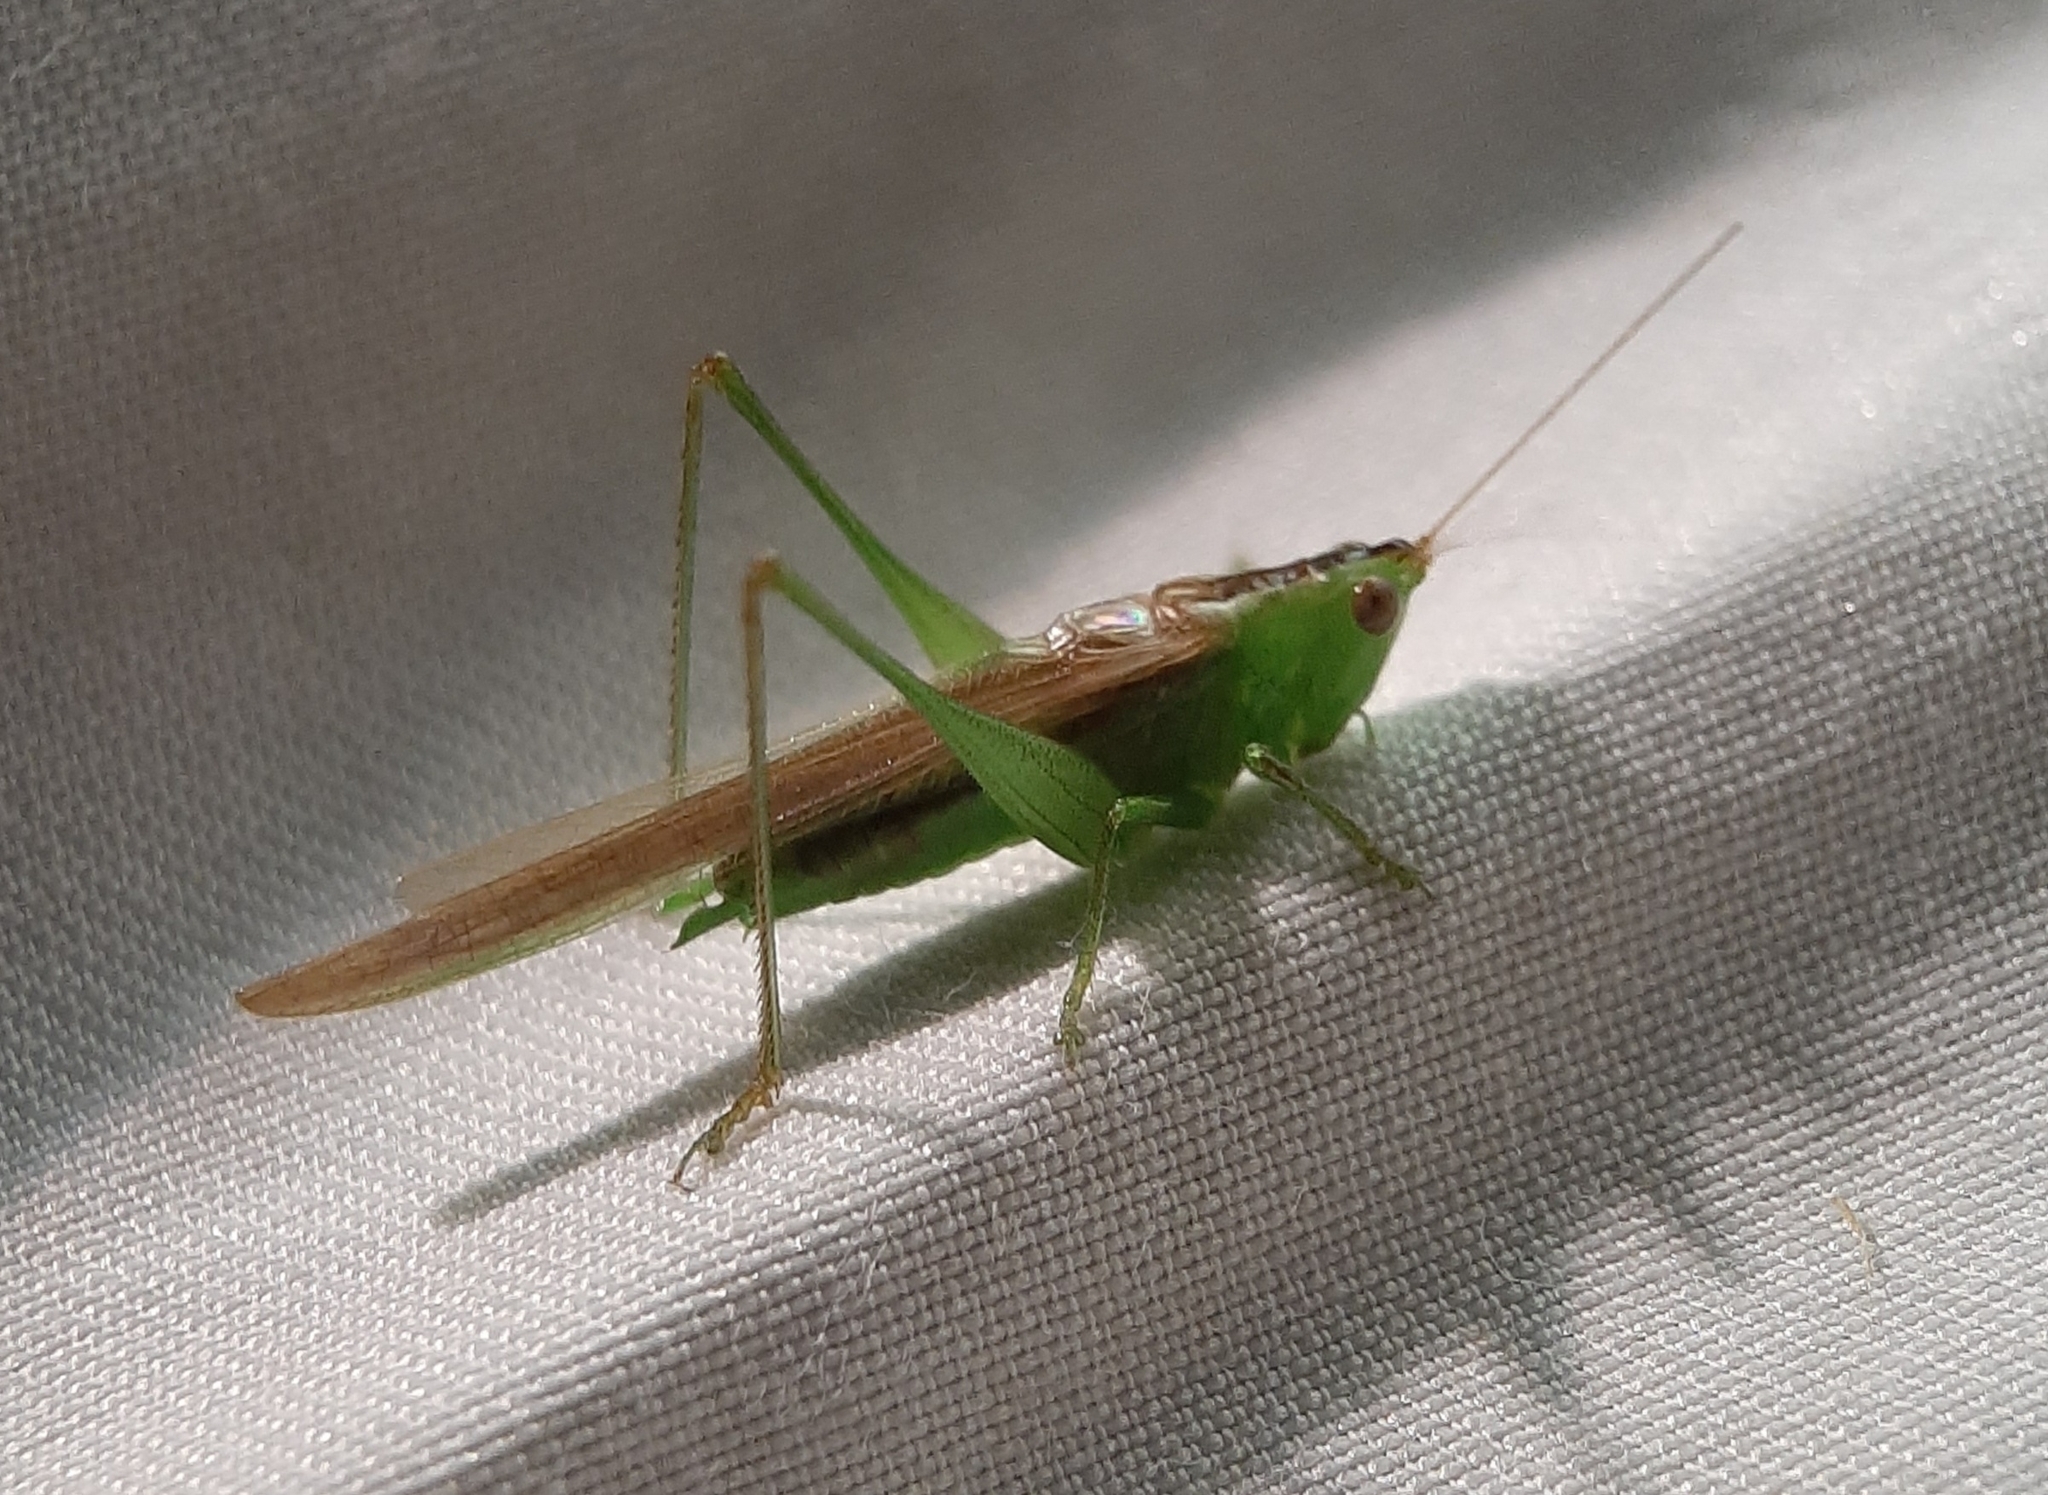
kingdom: Animalia
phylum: Arthropoda
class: Insecta
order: Orthoptera
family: Tettigoniidae
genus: Conocephalus
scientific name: Conocephalus fasciatus
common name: Slender meadow katydid
